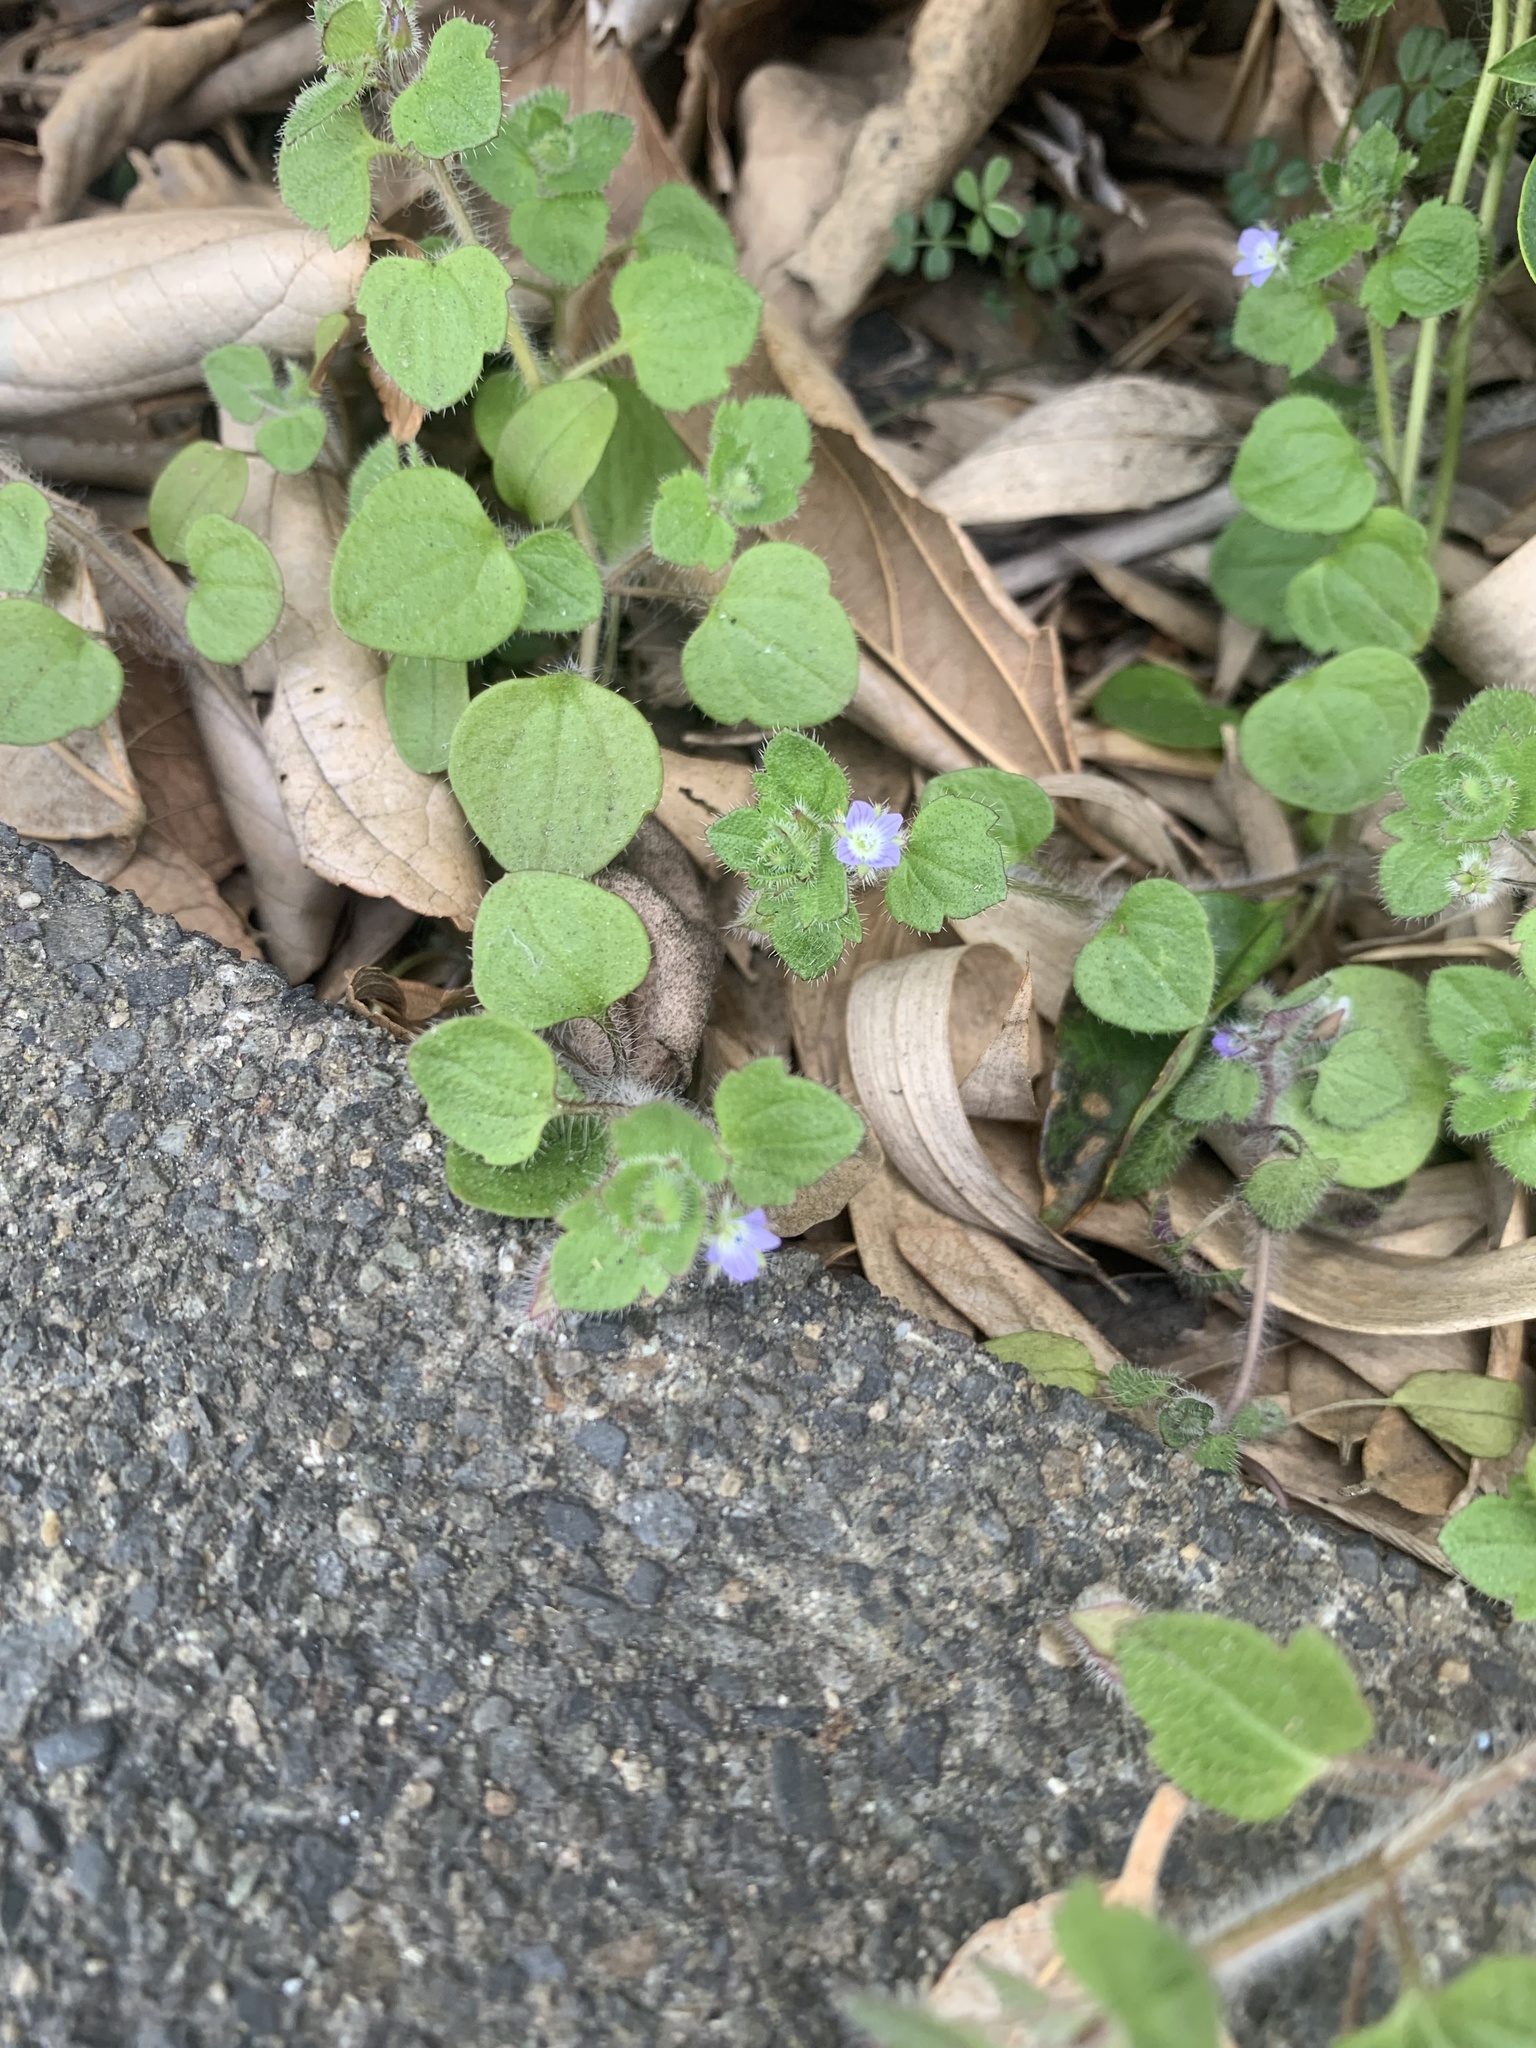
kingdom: Plantae
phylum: Tracheophyta
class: Magnoliopsida
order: Lamiales
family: Plantaginaceae
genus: Veronica
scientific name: Veronica hederifolia
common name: Ivy-leaved speedwell
